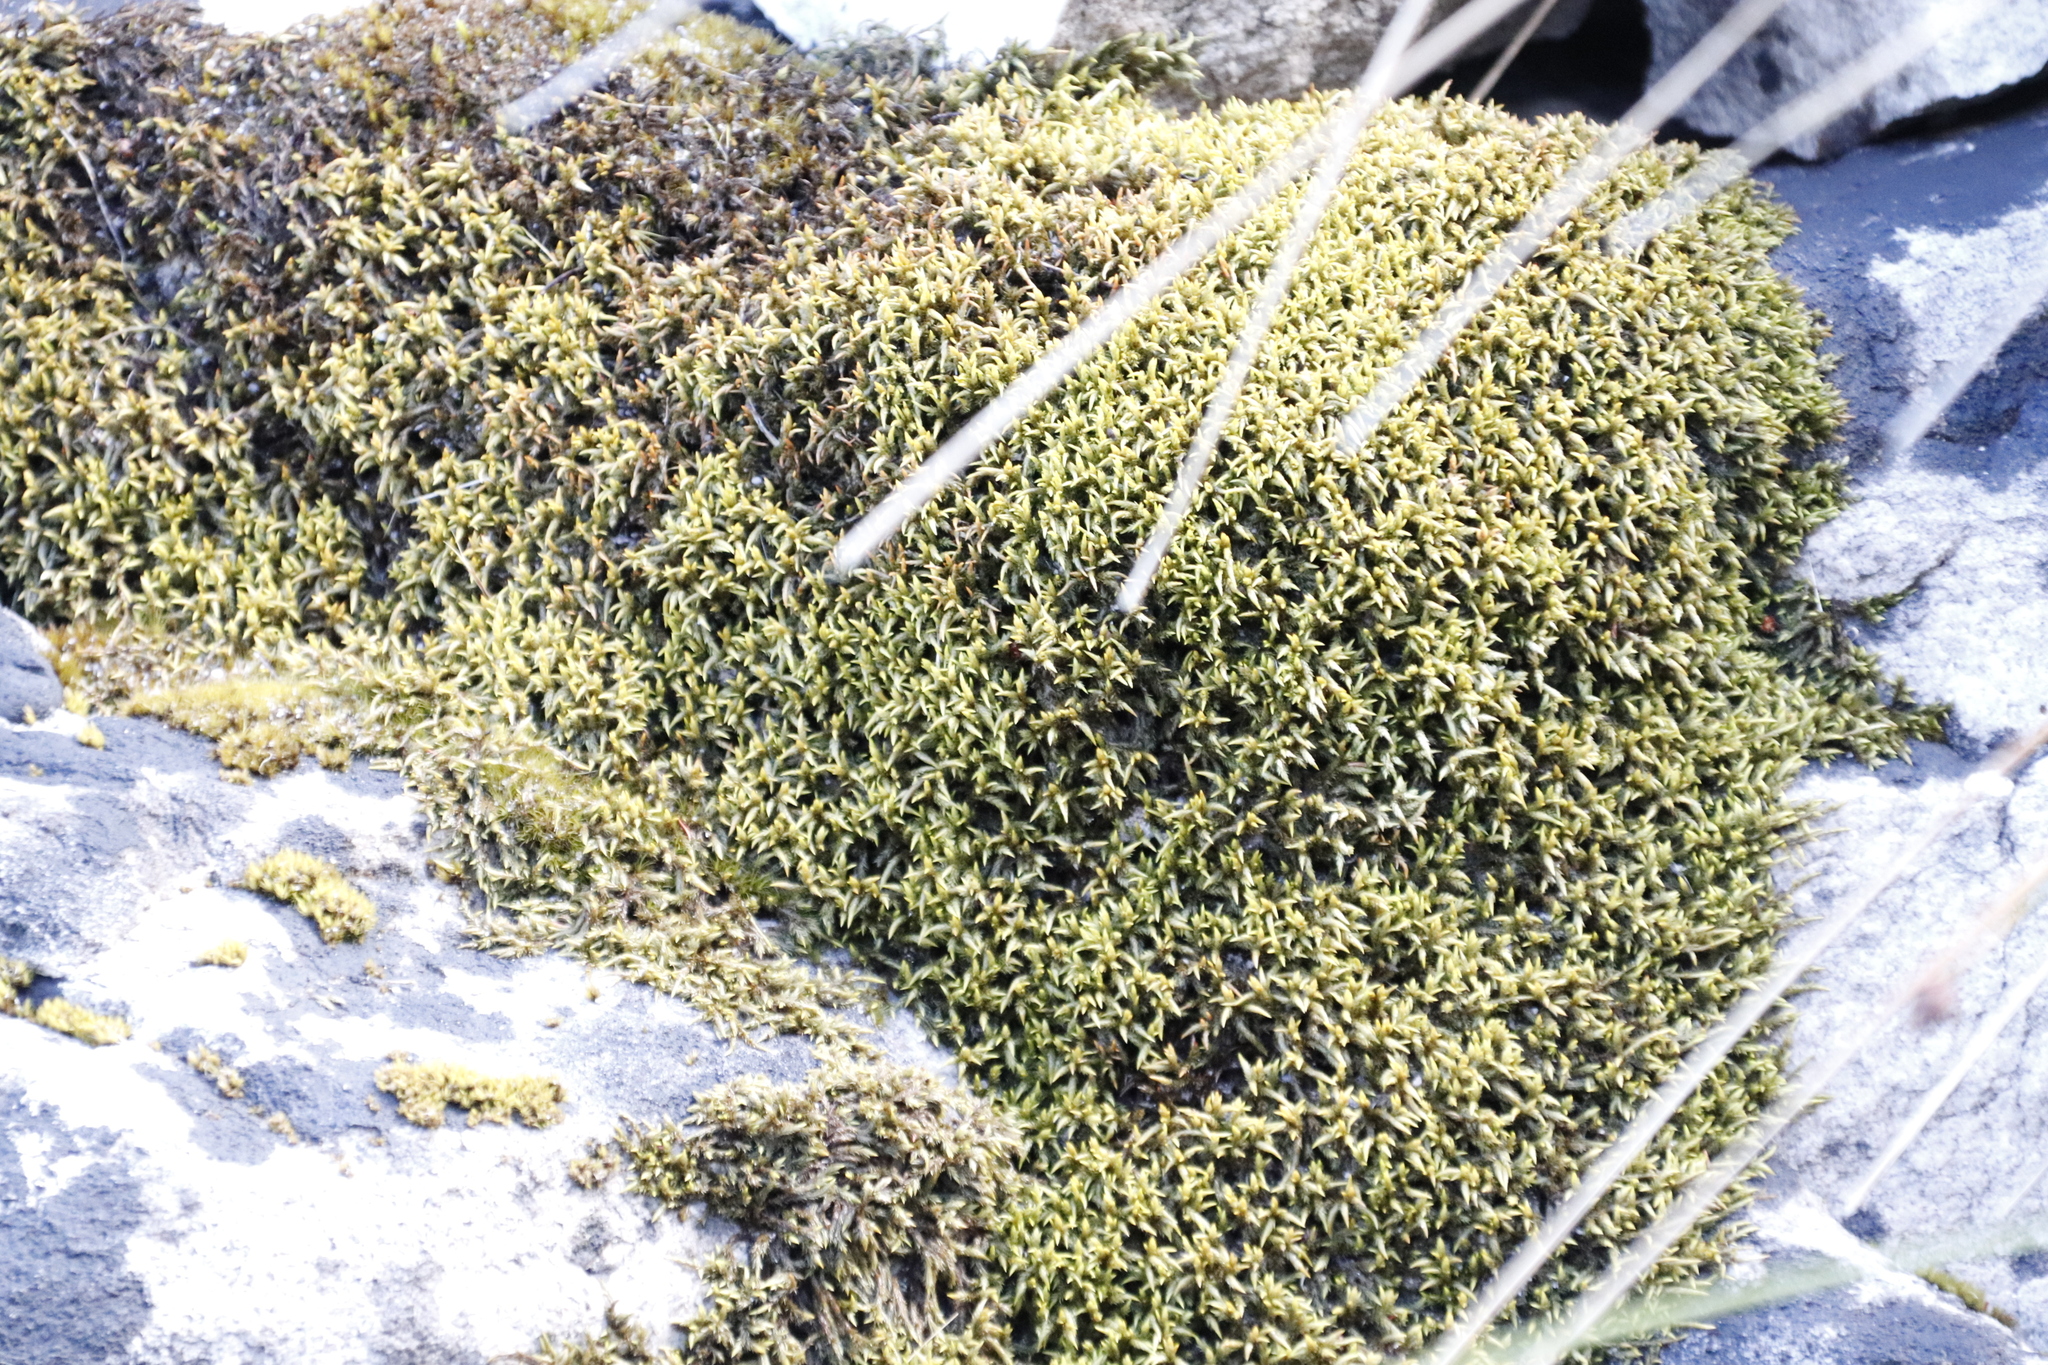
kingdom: Plantae
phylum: Bryophyta
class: Bryopsida
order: Hedwigiales
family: Hedwigiaceae
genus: Rhacocarpus
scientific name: Rhacocarpus purpurascens
